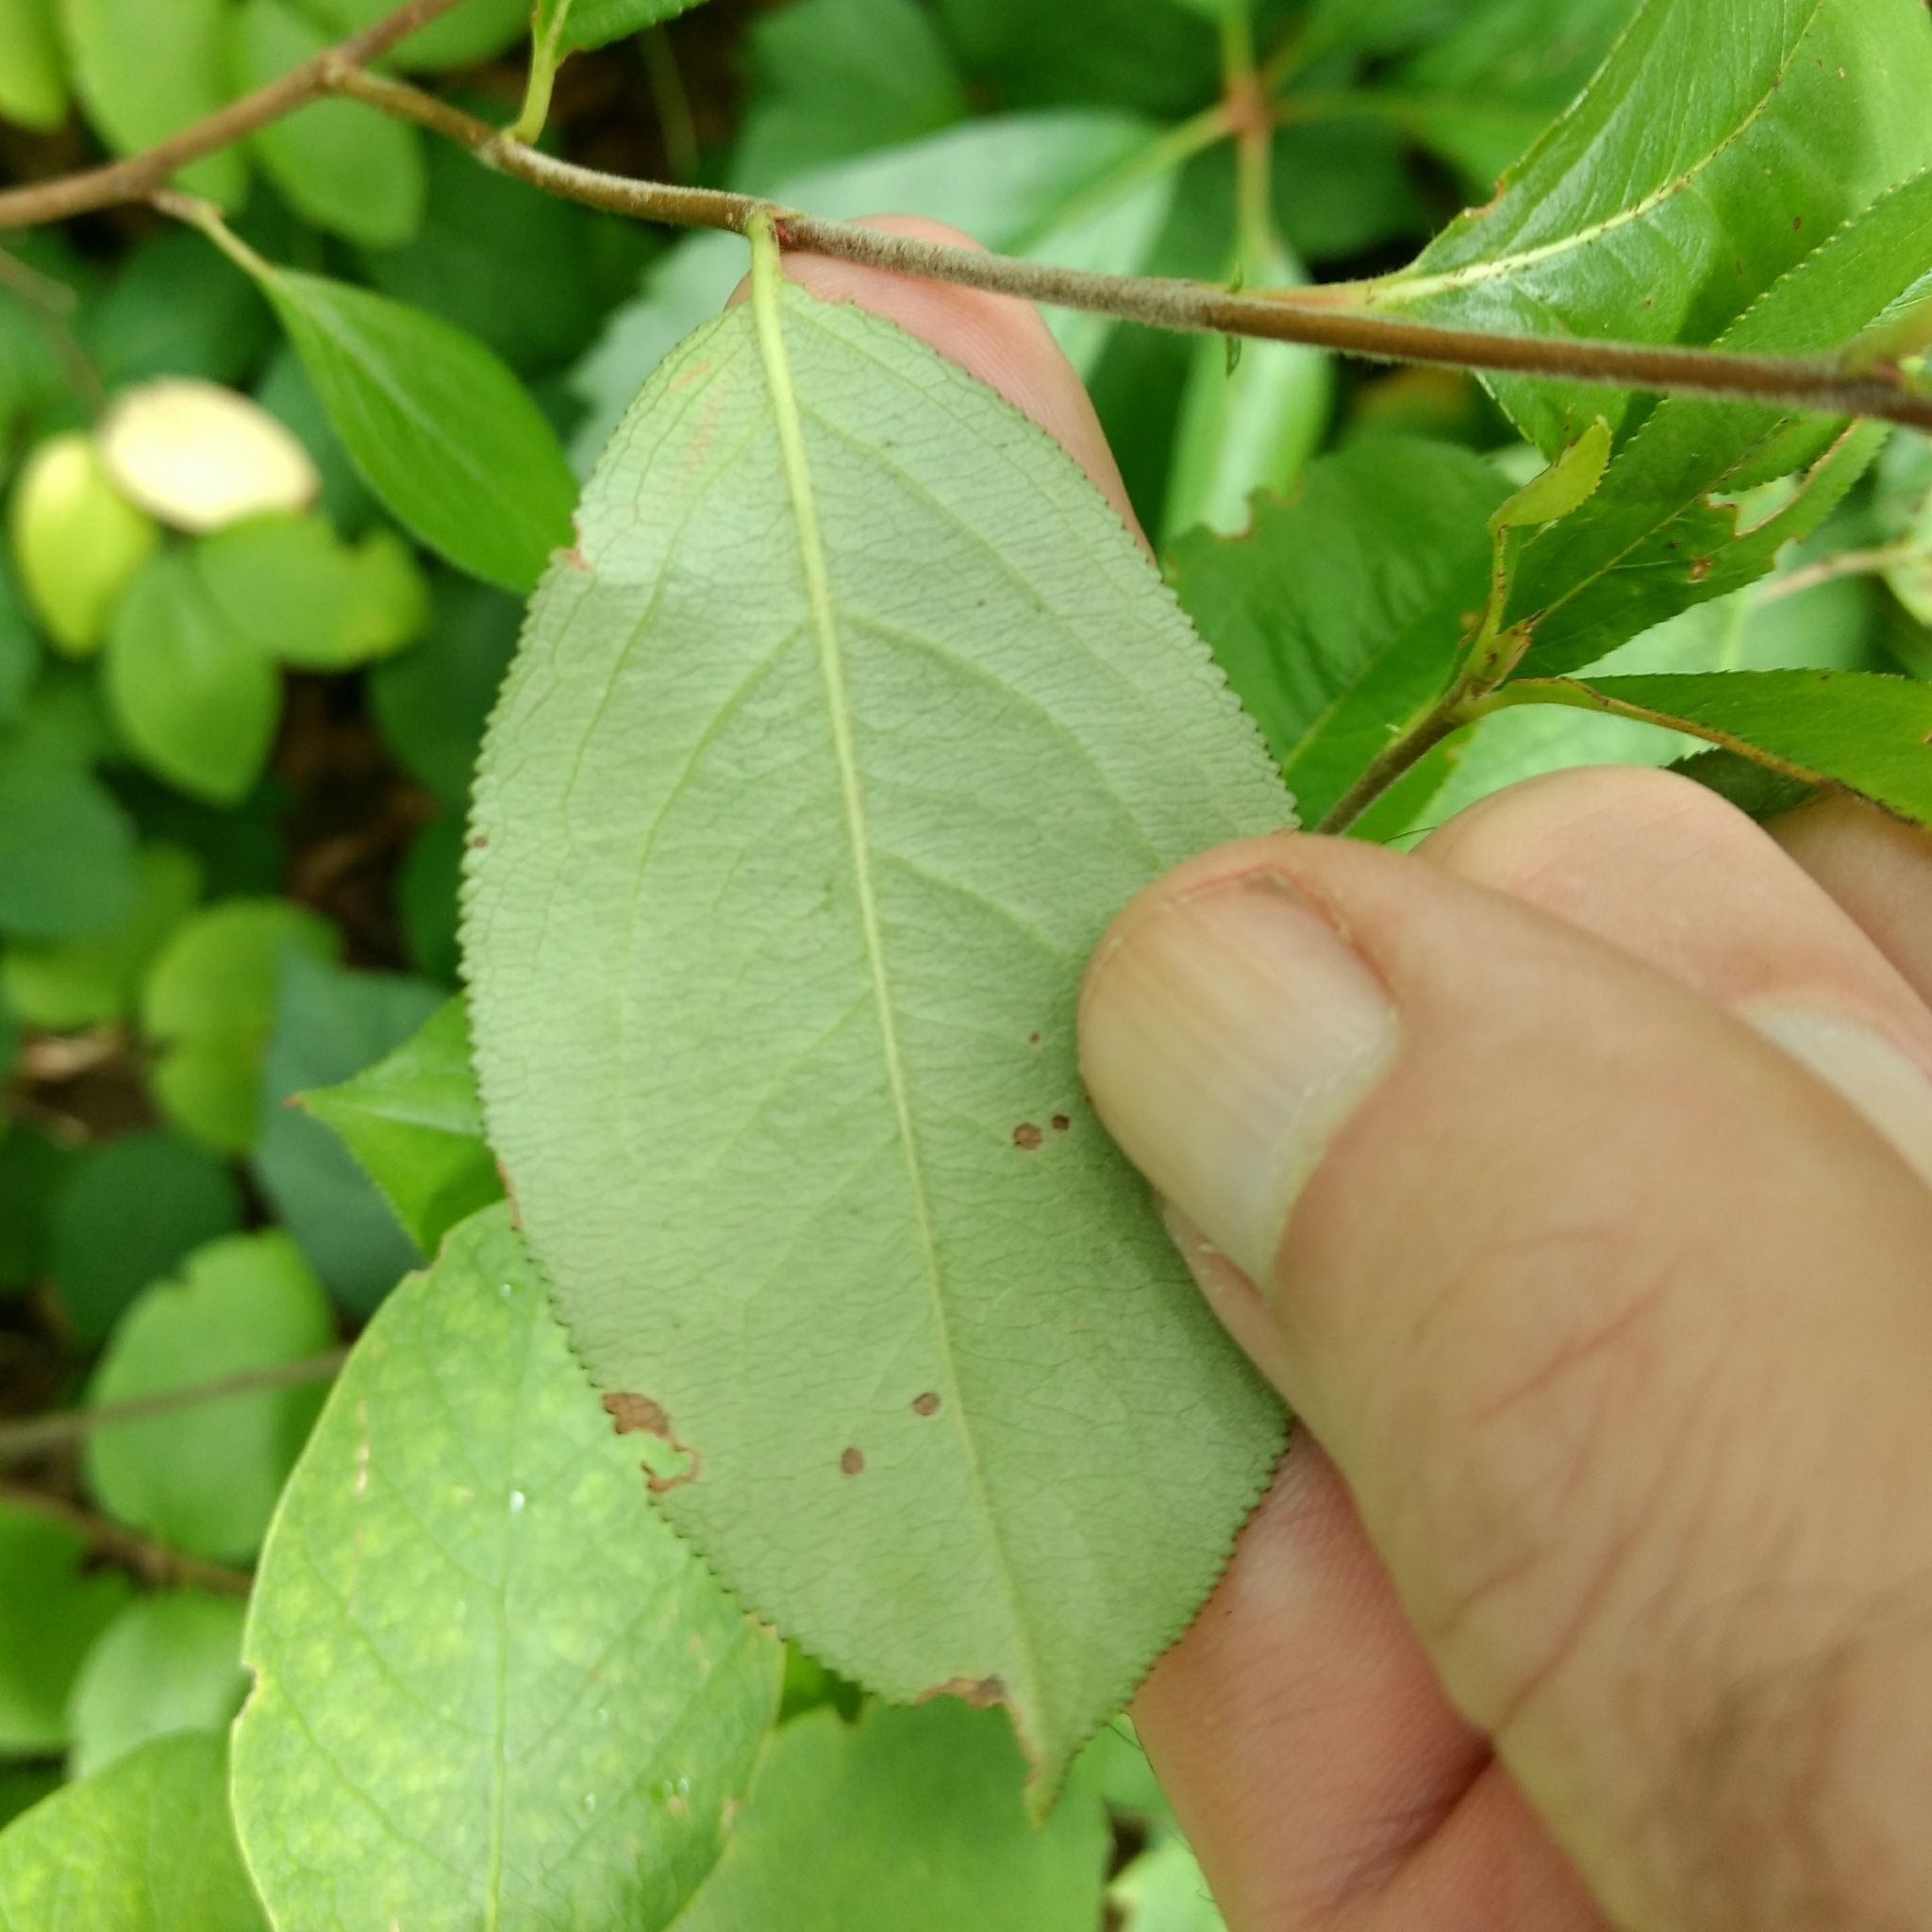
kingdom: Plantae
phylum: Tracheophyta
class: Magnoliopsida
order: Rosales
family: Rosaceae
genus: Prunus
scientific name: Prunus virginiana
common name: Chokecherry
